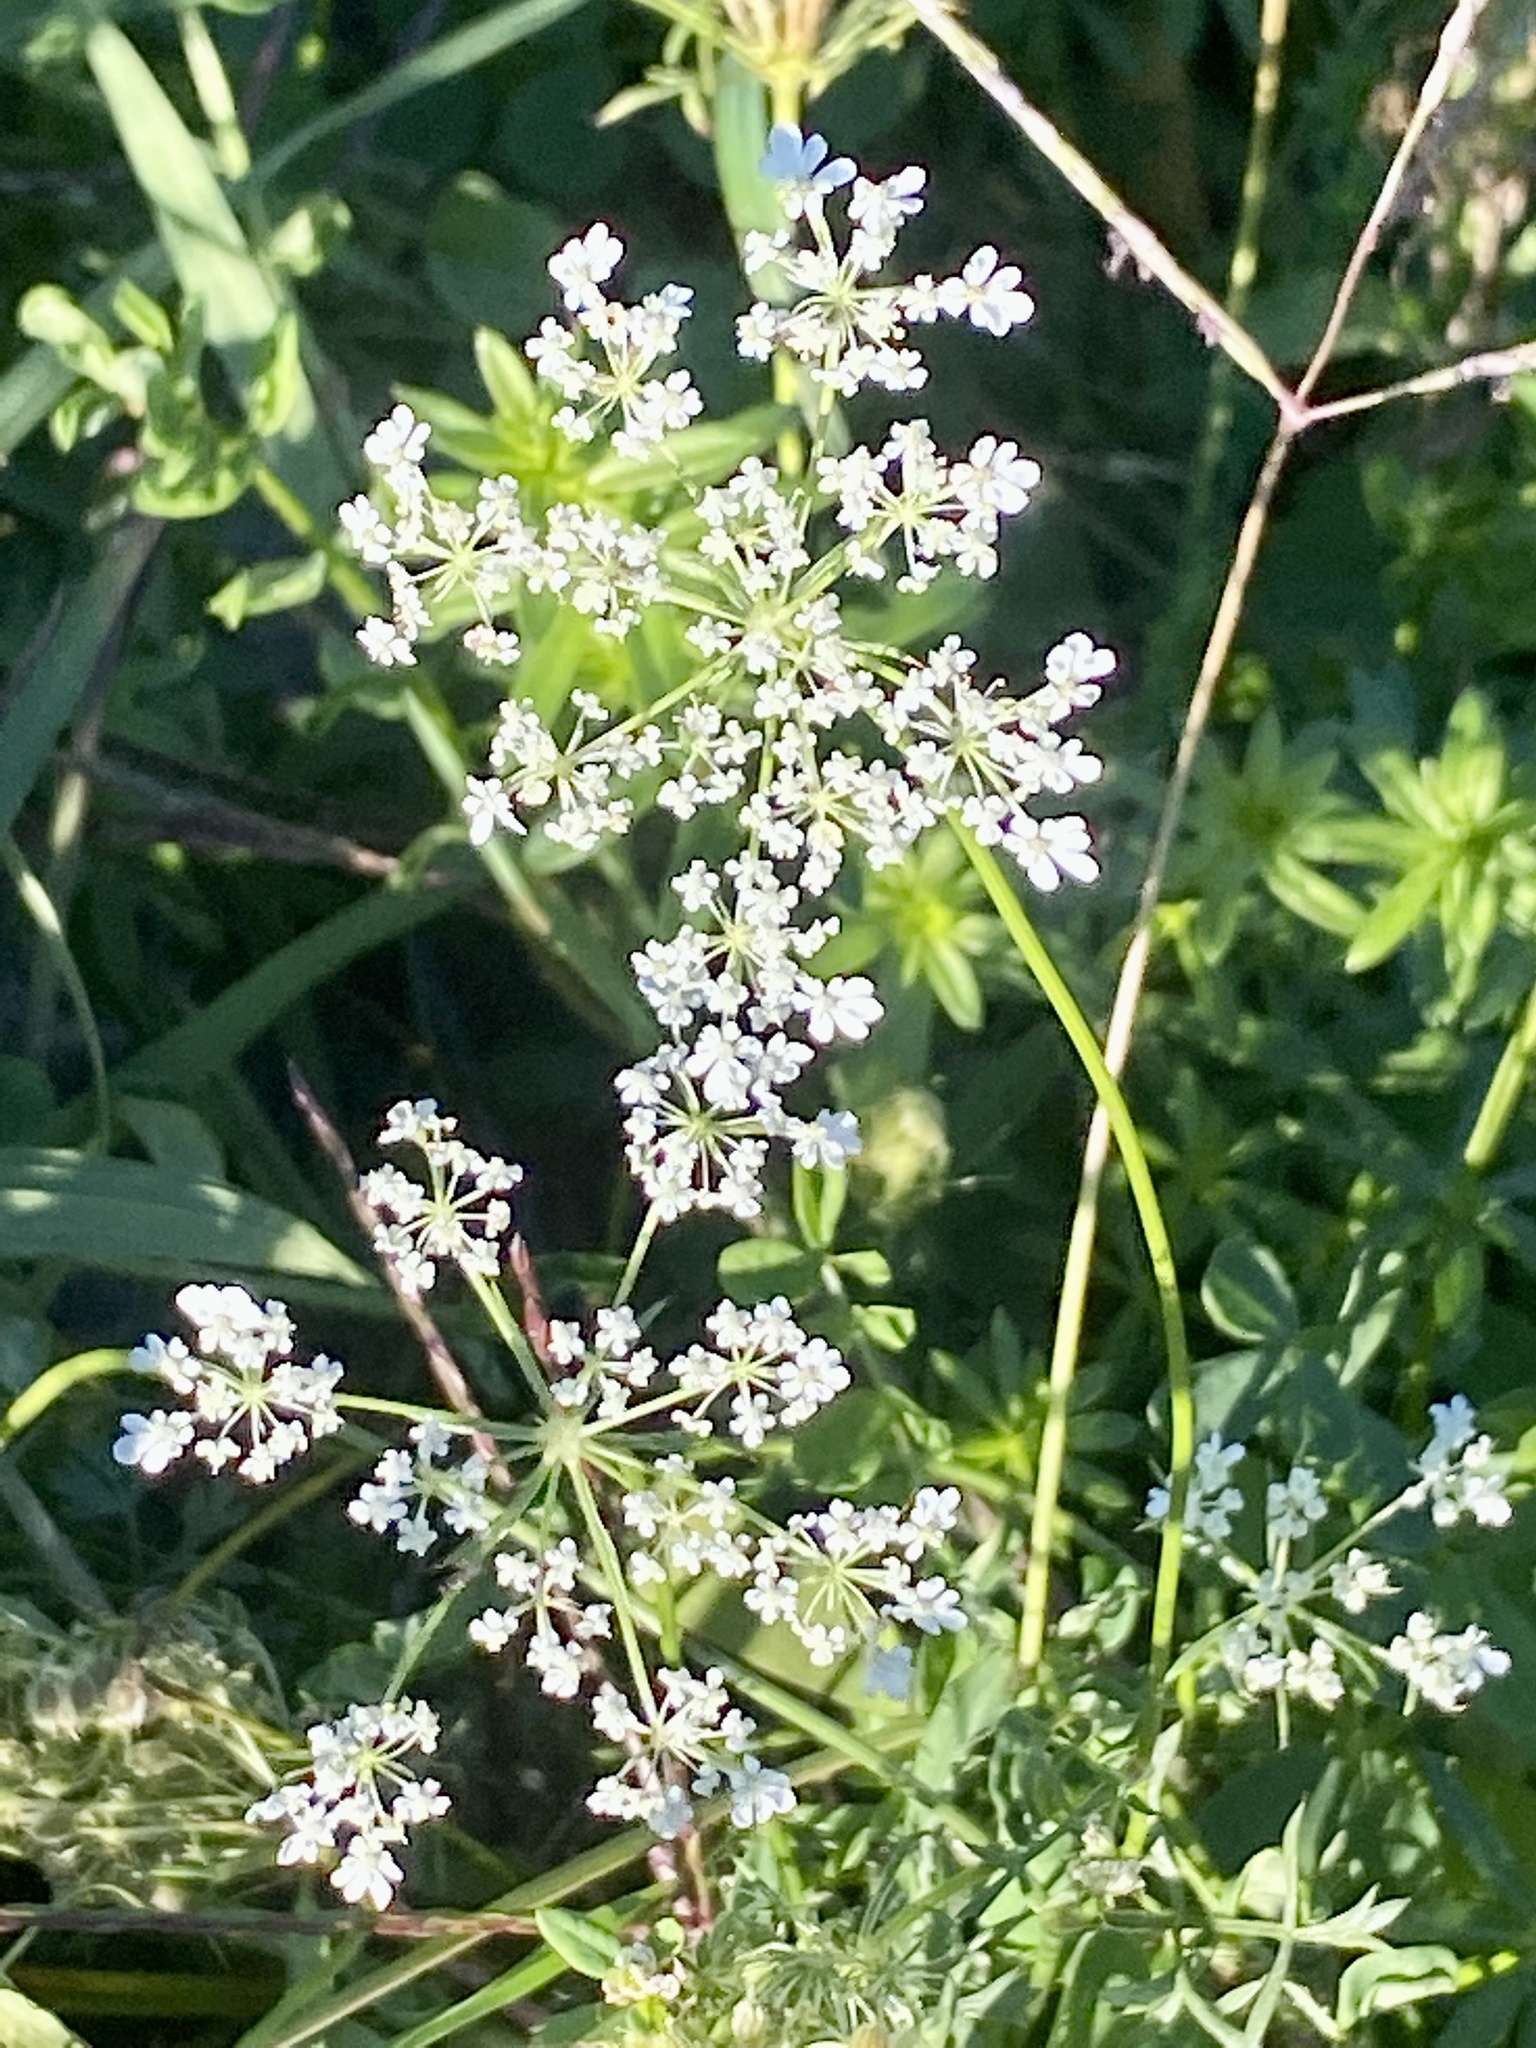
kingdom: Plantae
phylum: Tracheophyta
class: Magnoliopsida
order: Apiales
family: Apiaceae
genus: Daucus
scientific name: Daucus carota
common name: Wild carrot
